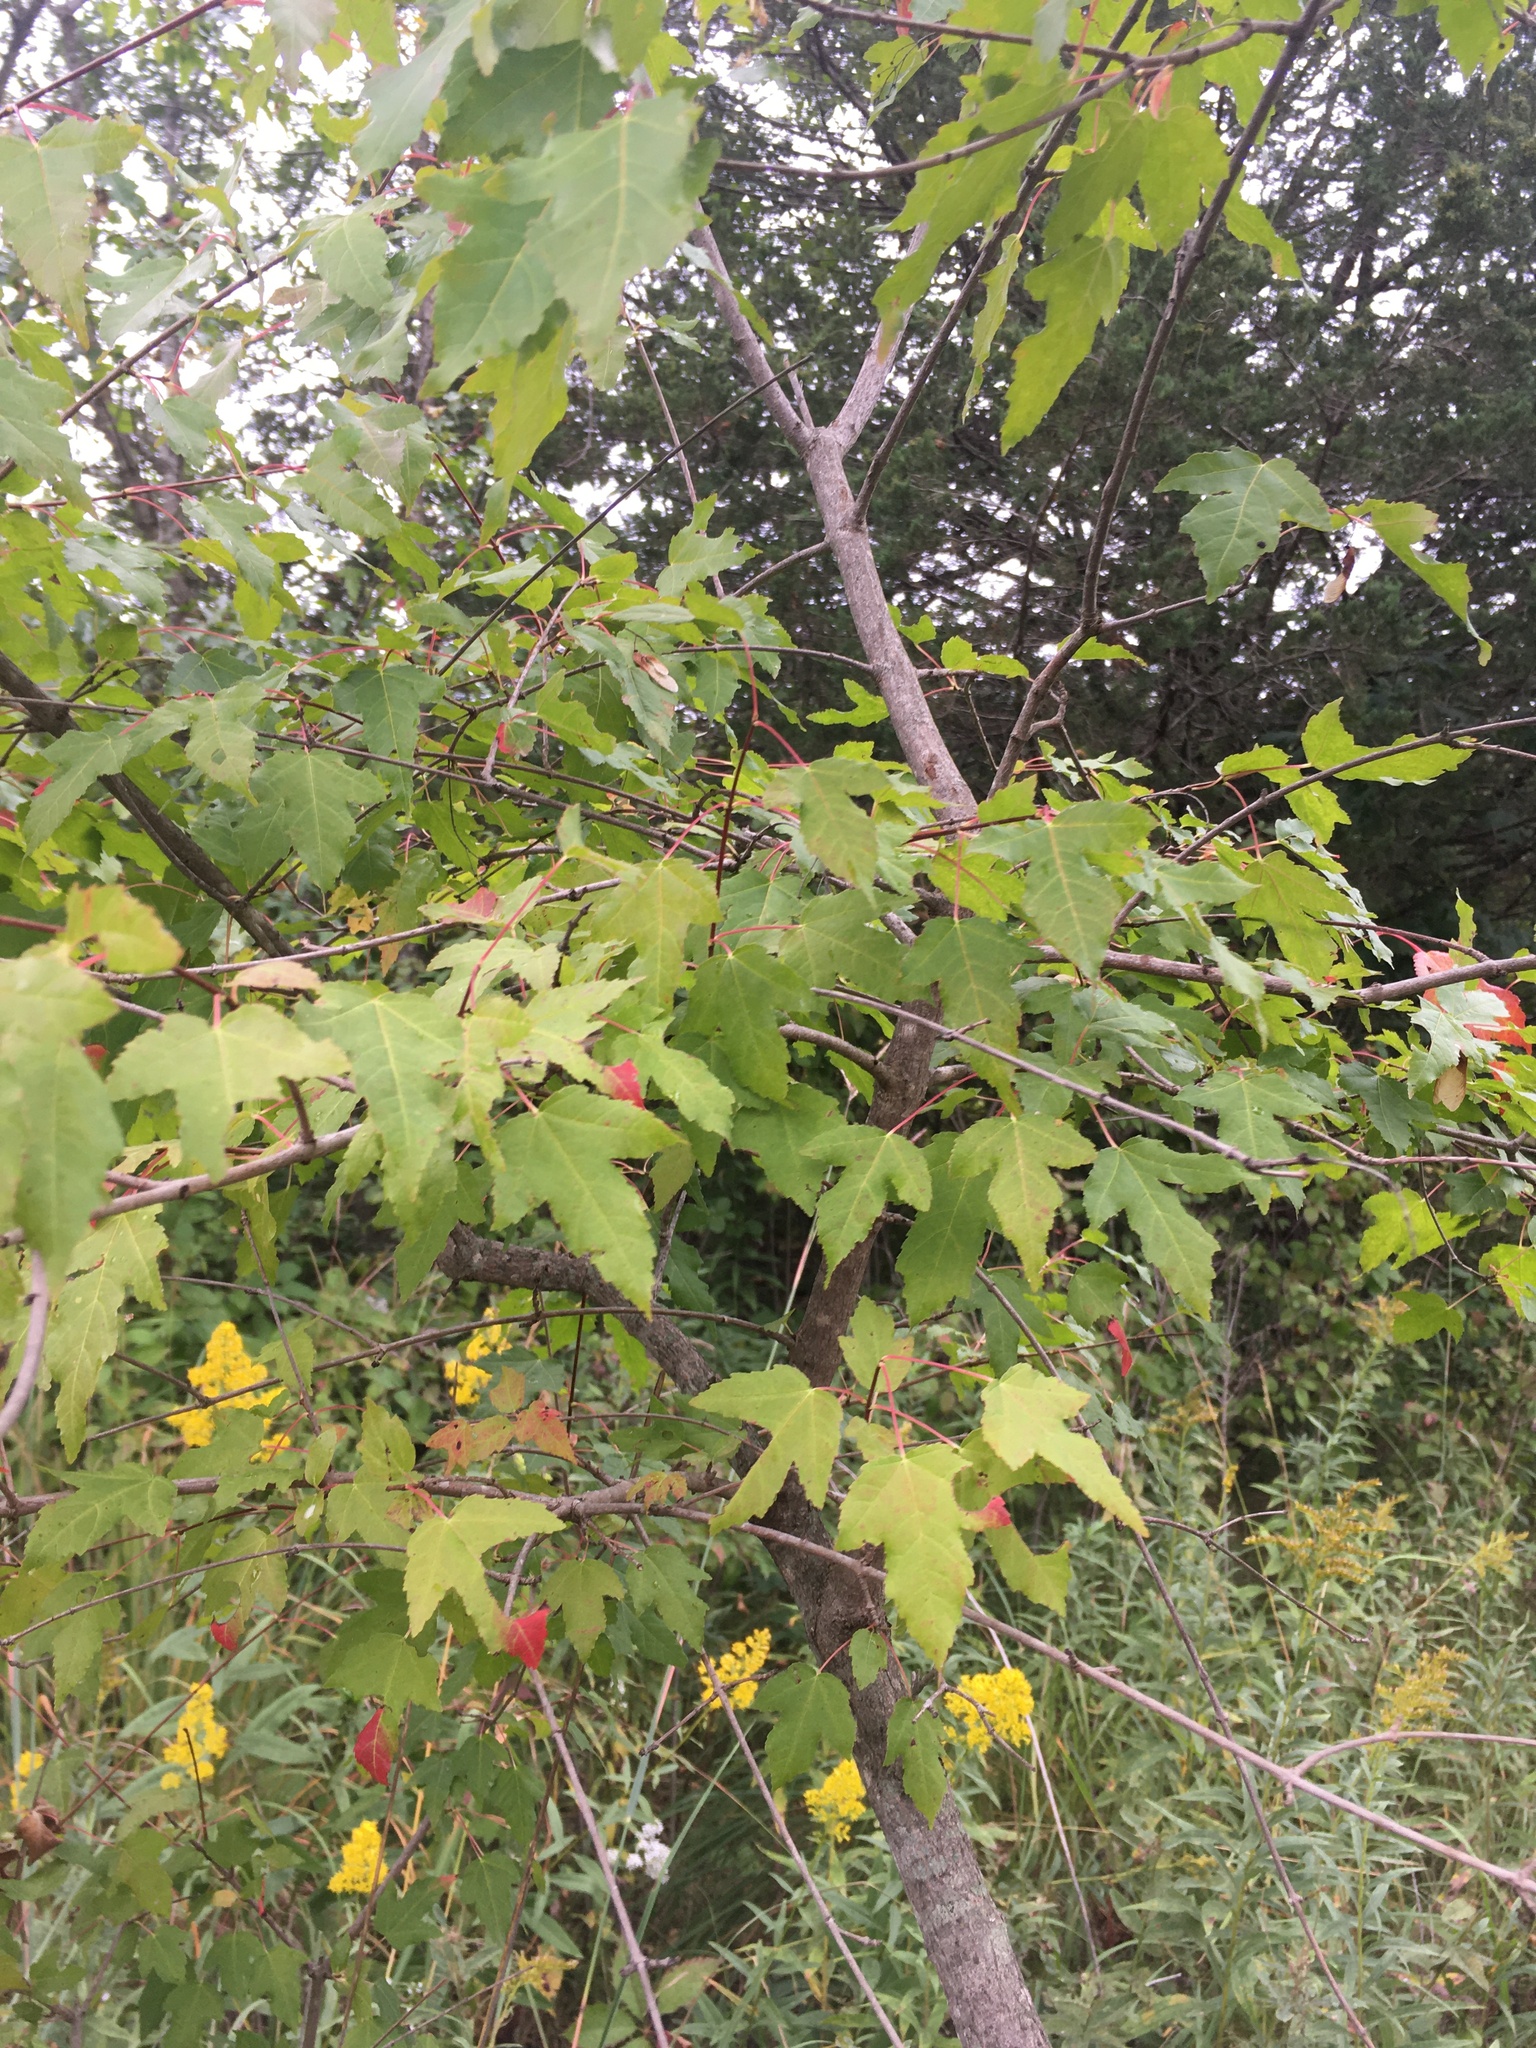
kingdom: Plantae
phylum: Tracheophyta
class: Magnoliopsida
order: Sapindales
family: Sapindaceae
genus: Acer
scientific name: Acer tataricum
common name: Tartar maple
